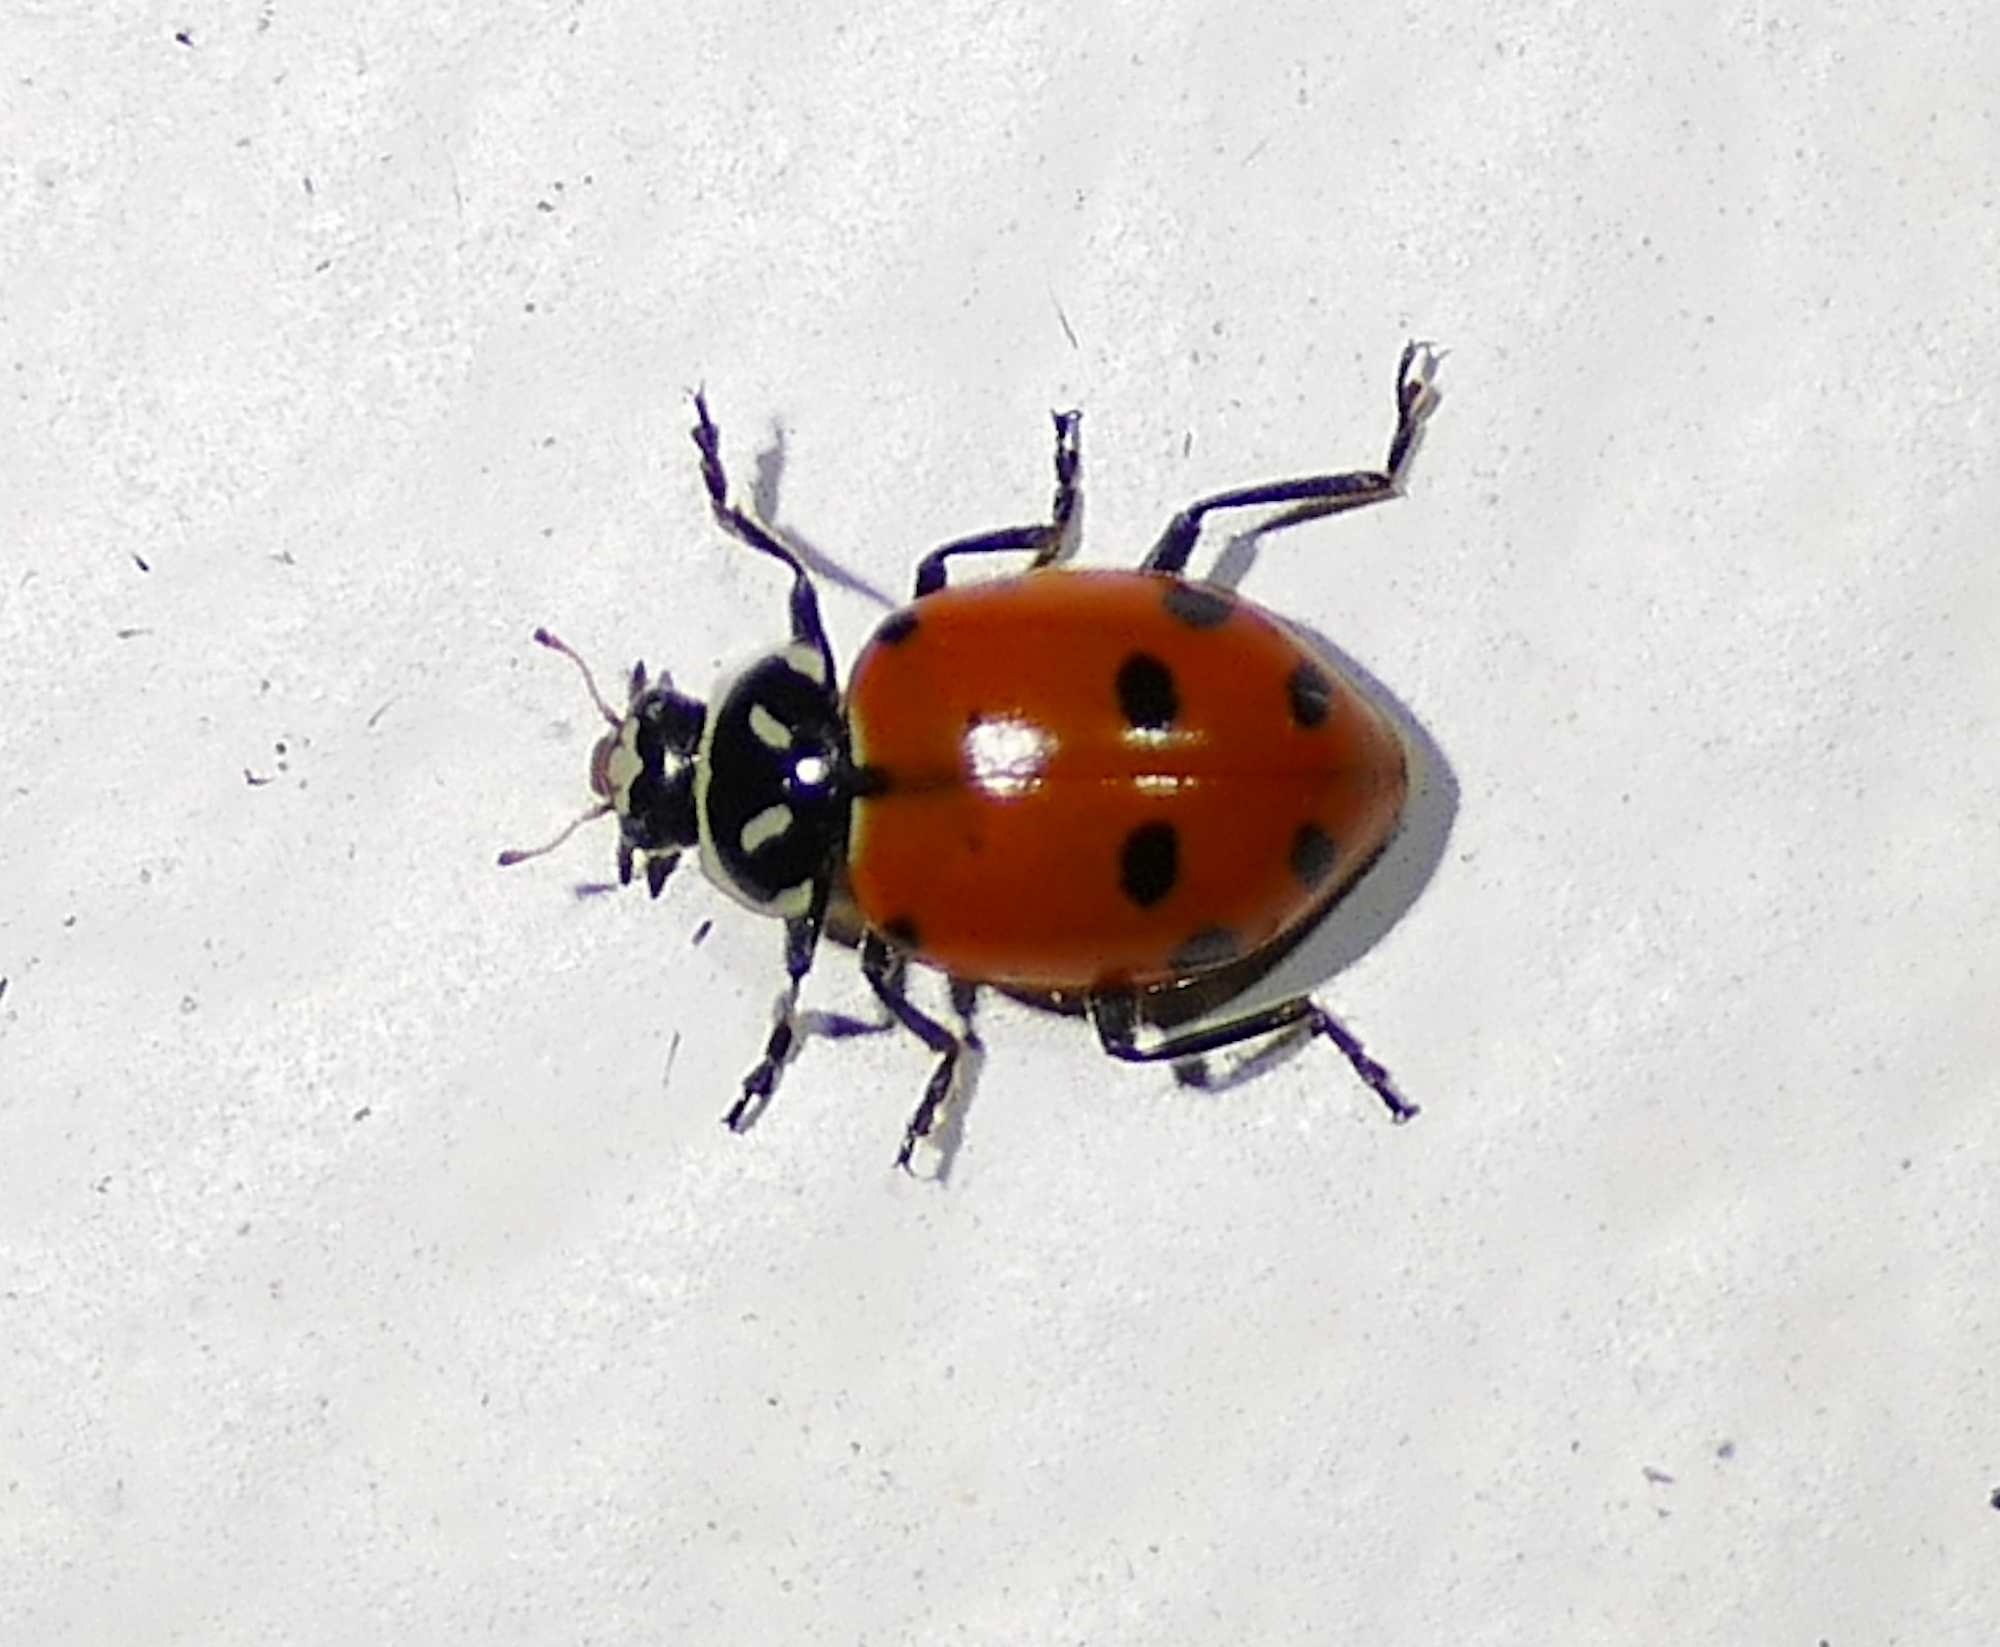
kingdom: Animalia
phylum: Arthropoda
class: Insecta
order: Coleoptera
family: Coccinellidae
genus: Hippodamia
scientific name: Hippodamia convergens
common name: Convergent lady beetle
